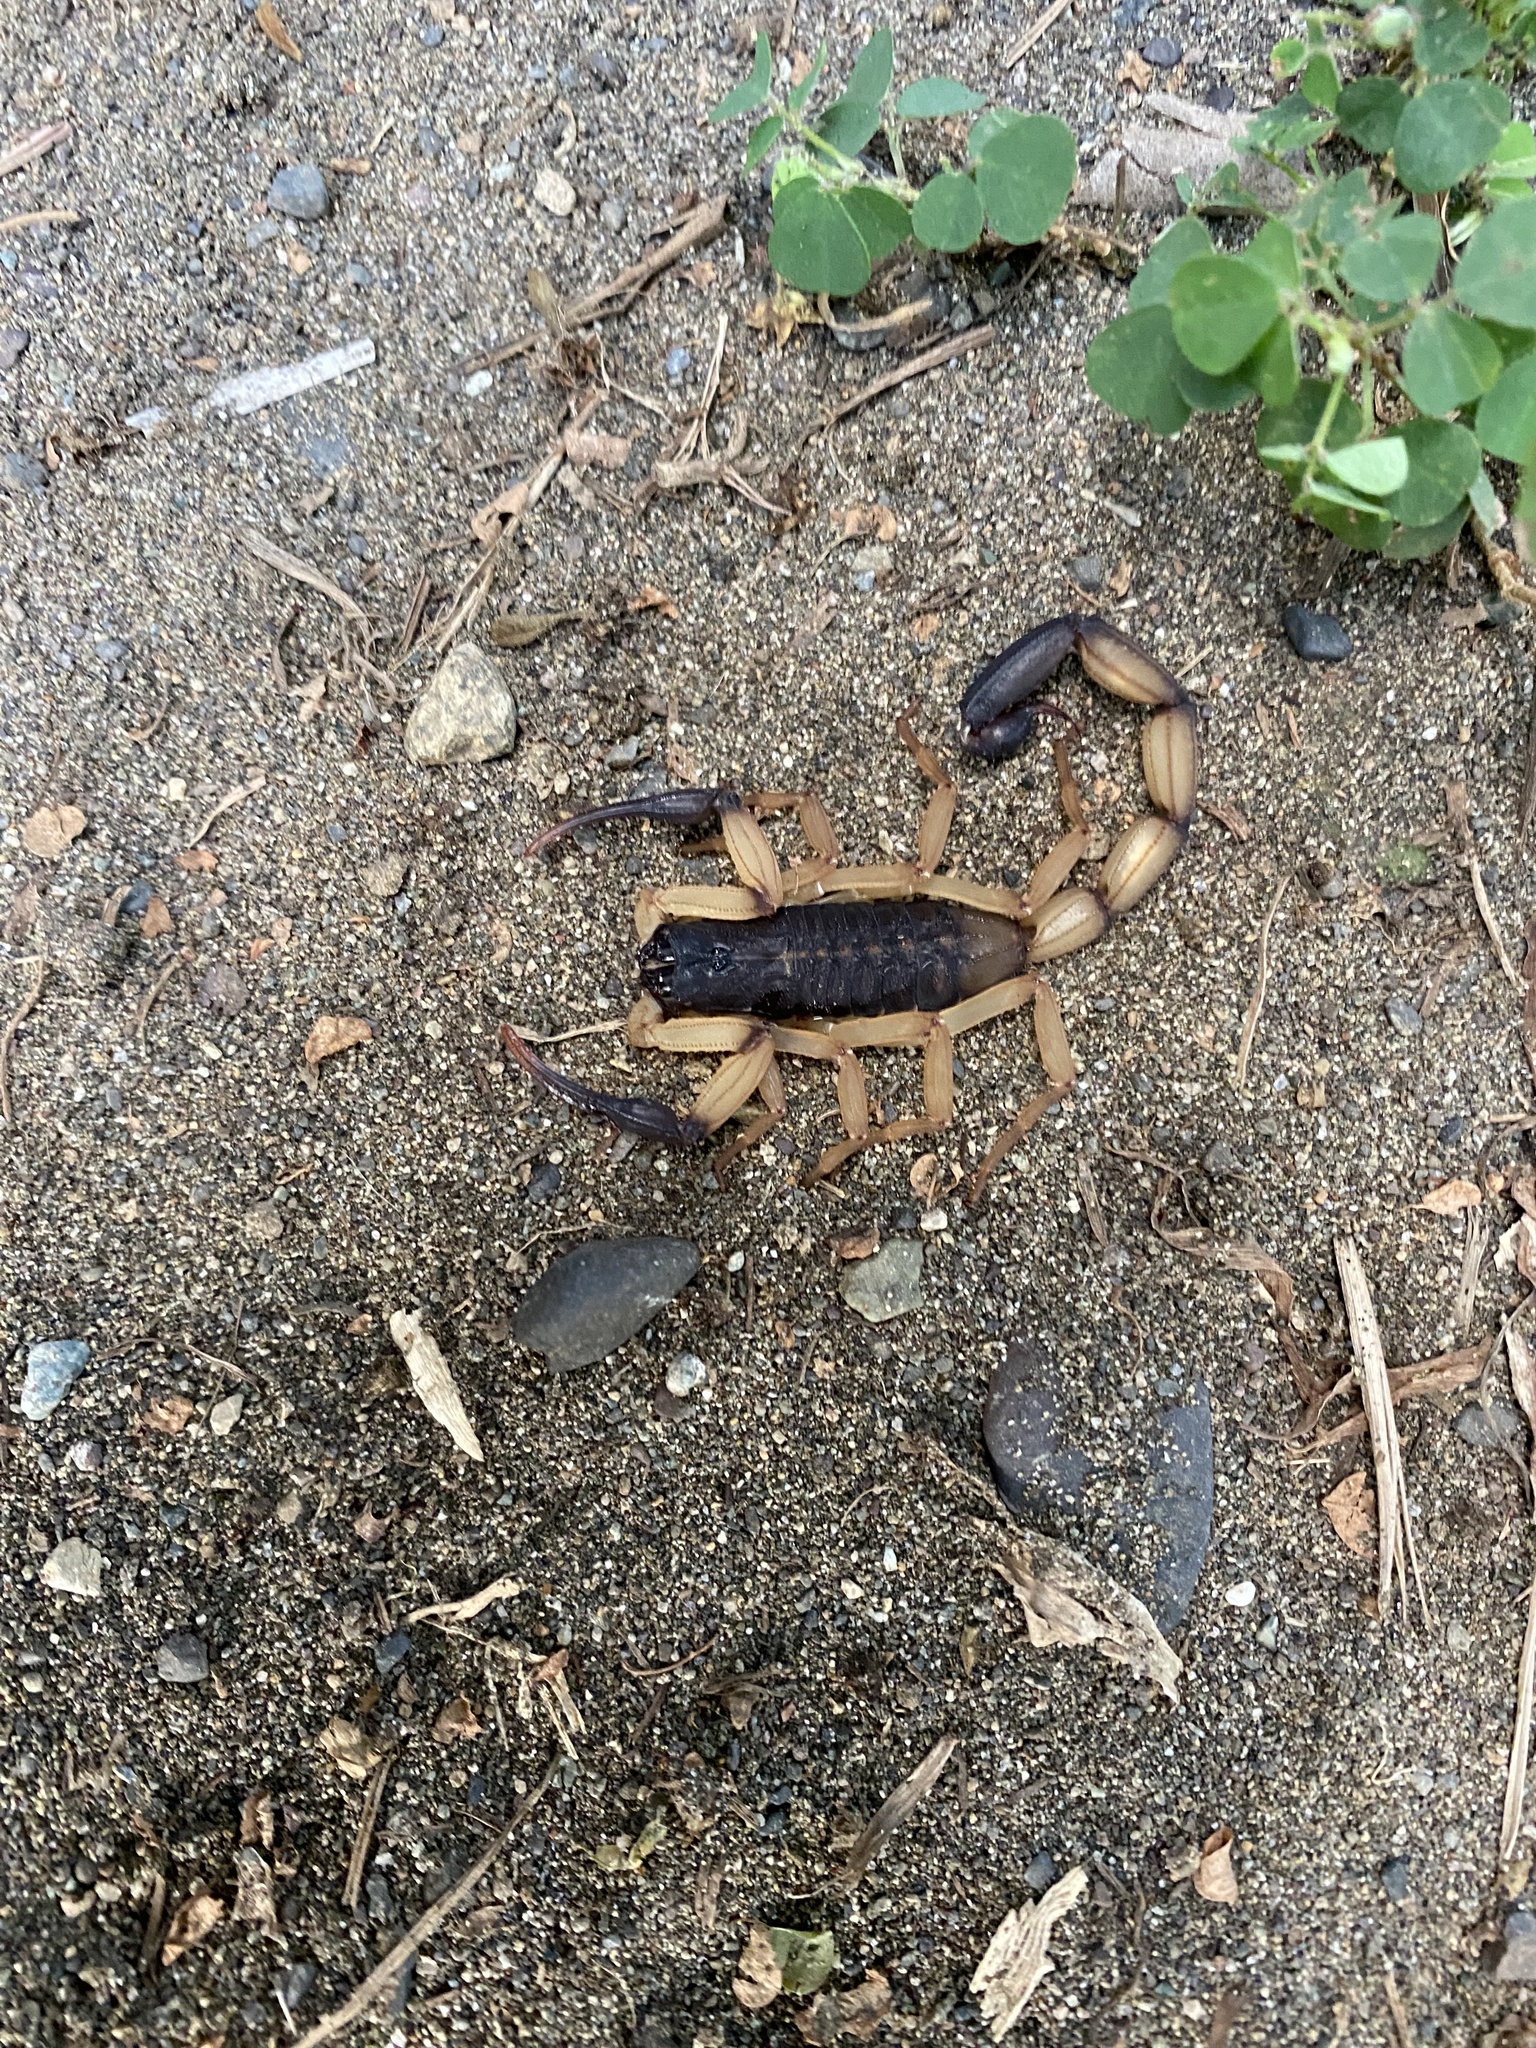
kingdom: Animalia
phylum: Arthropoda
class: Arachnida
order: Scorpiones
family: Buthidae
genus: Centruroides
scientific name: Centruroides bicolor
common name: Scorpions
